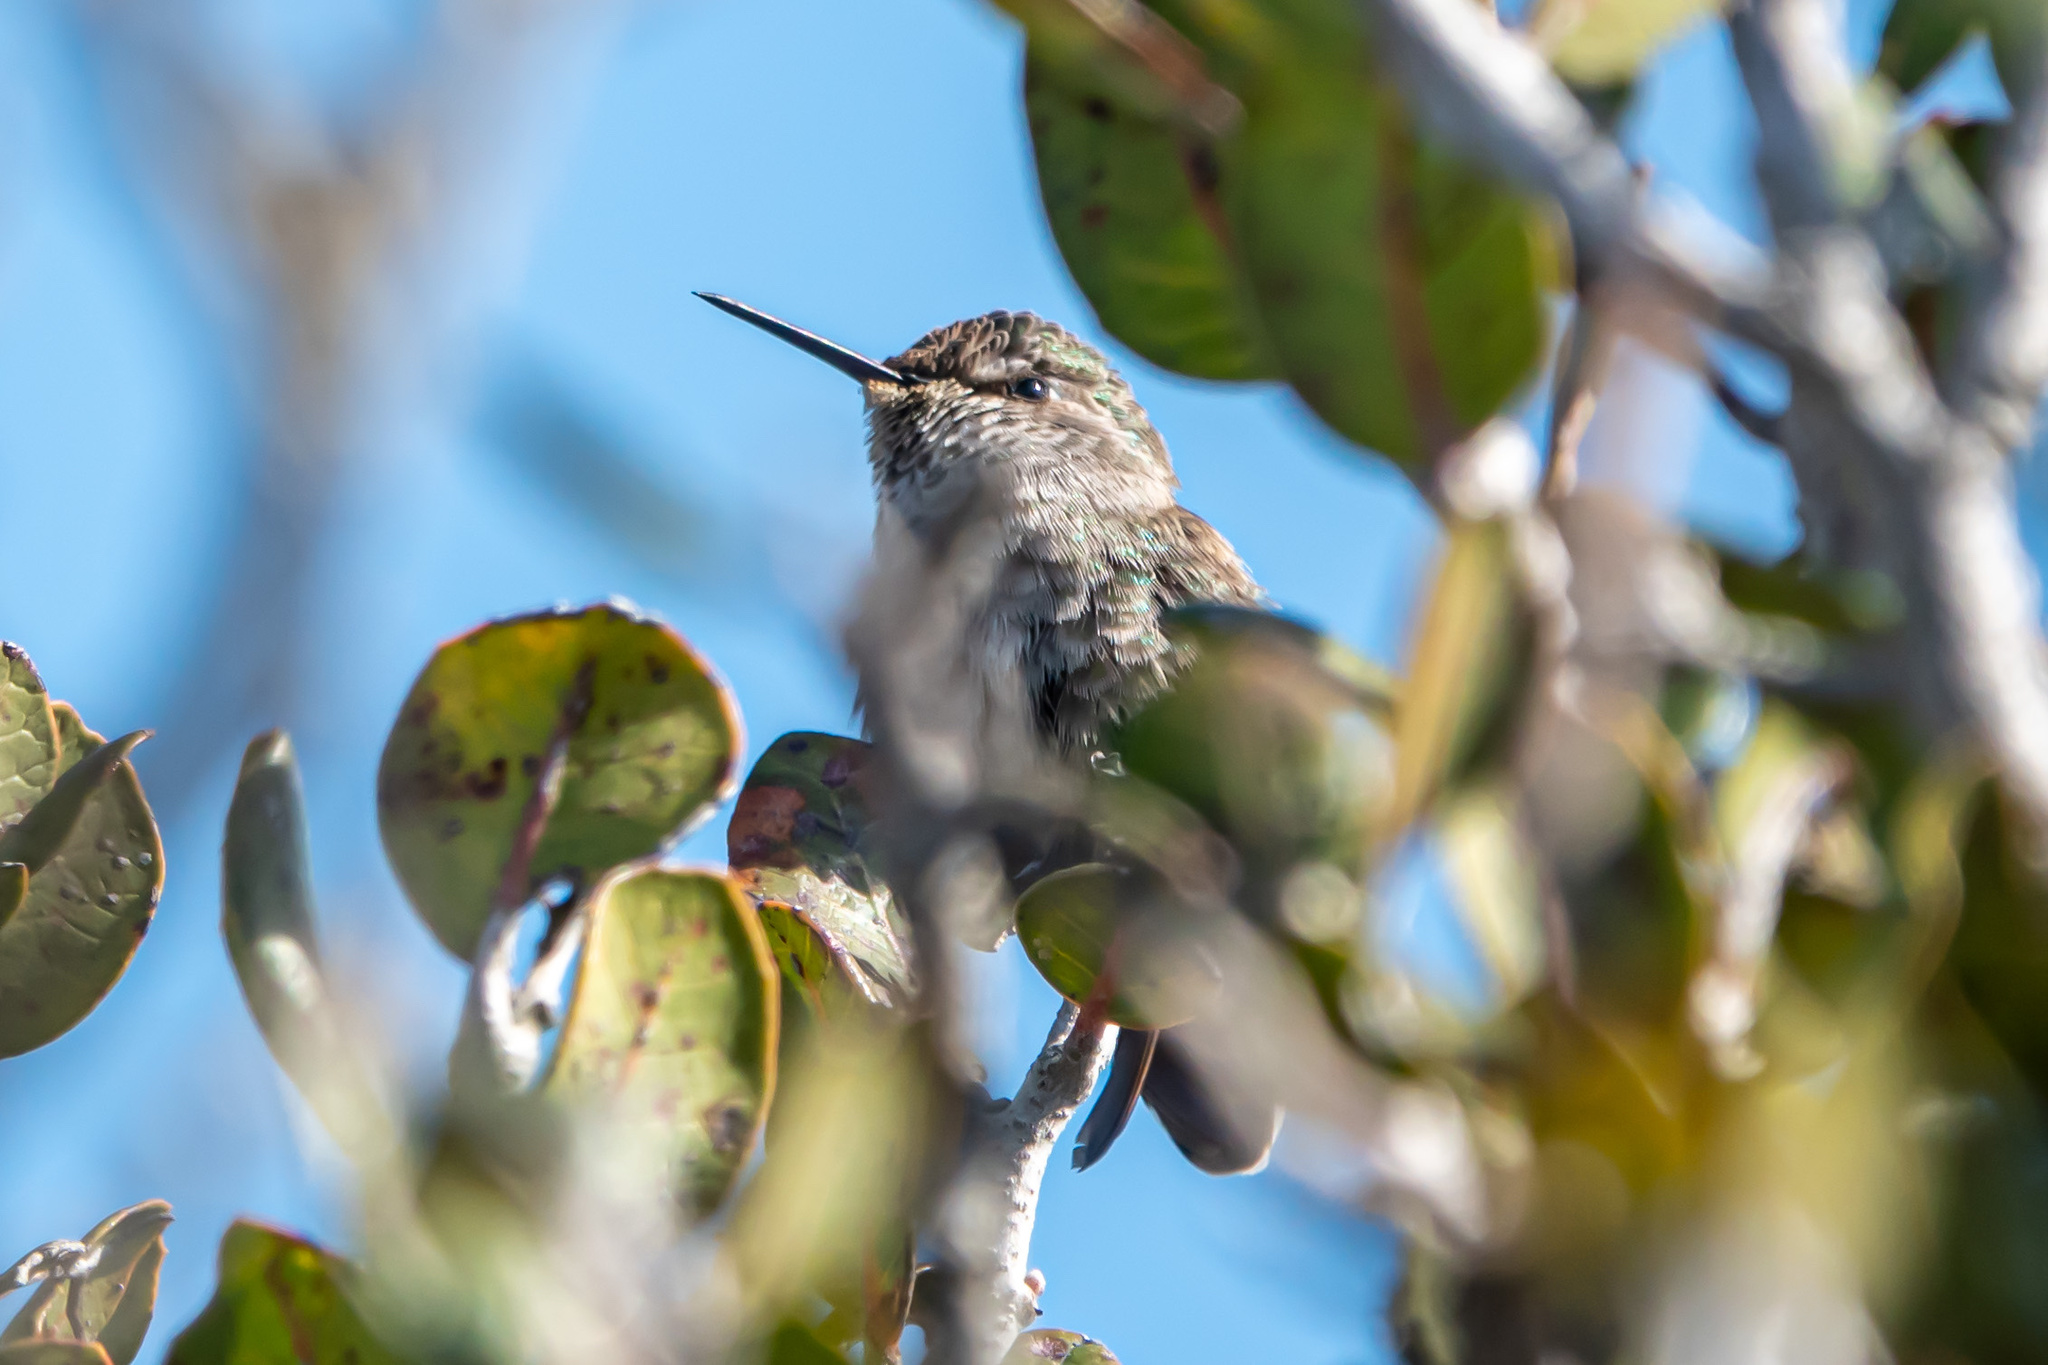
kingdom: Animalia
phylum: Chordata
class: Aves
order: Apodiformes
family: Trochilidae
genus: Calypte
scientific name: Calypte costae
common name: Costa's hummingbird
